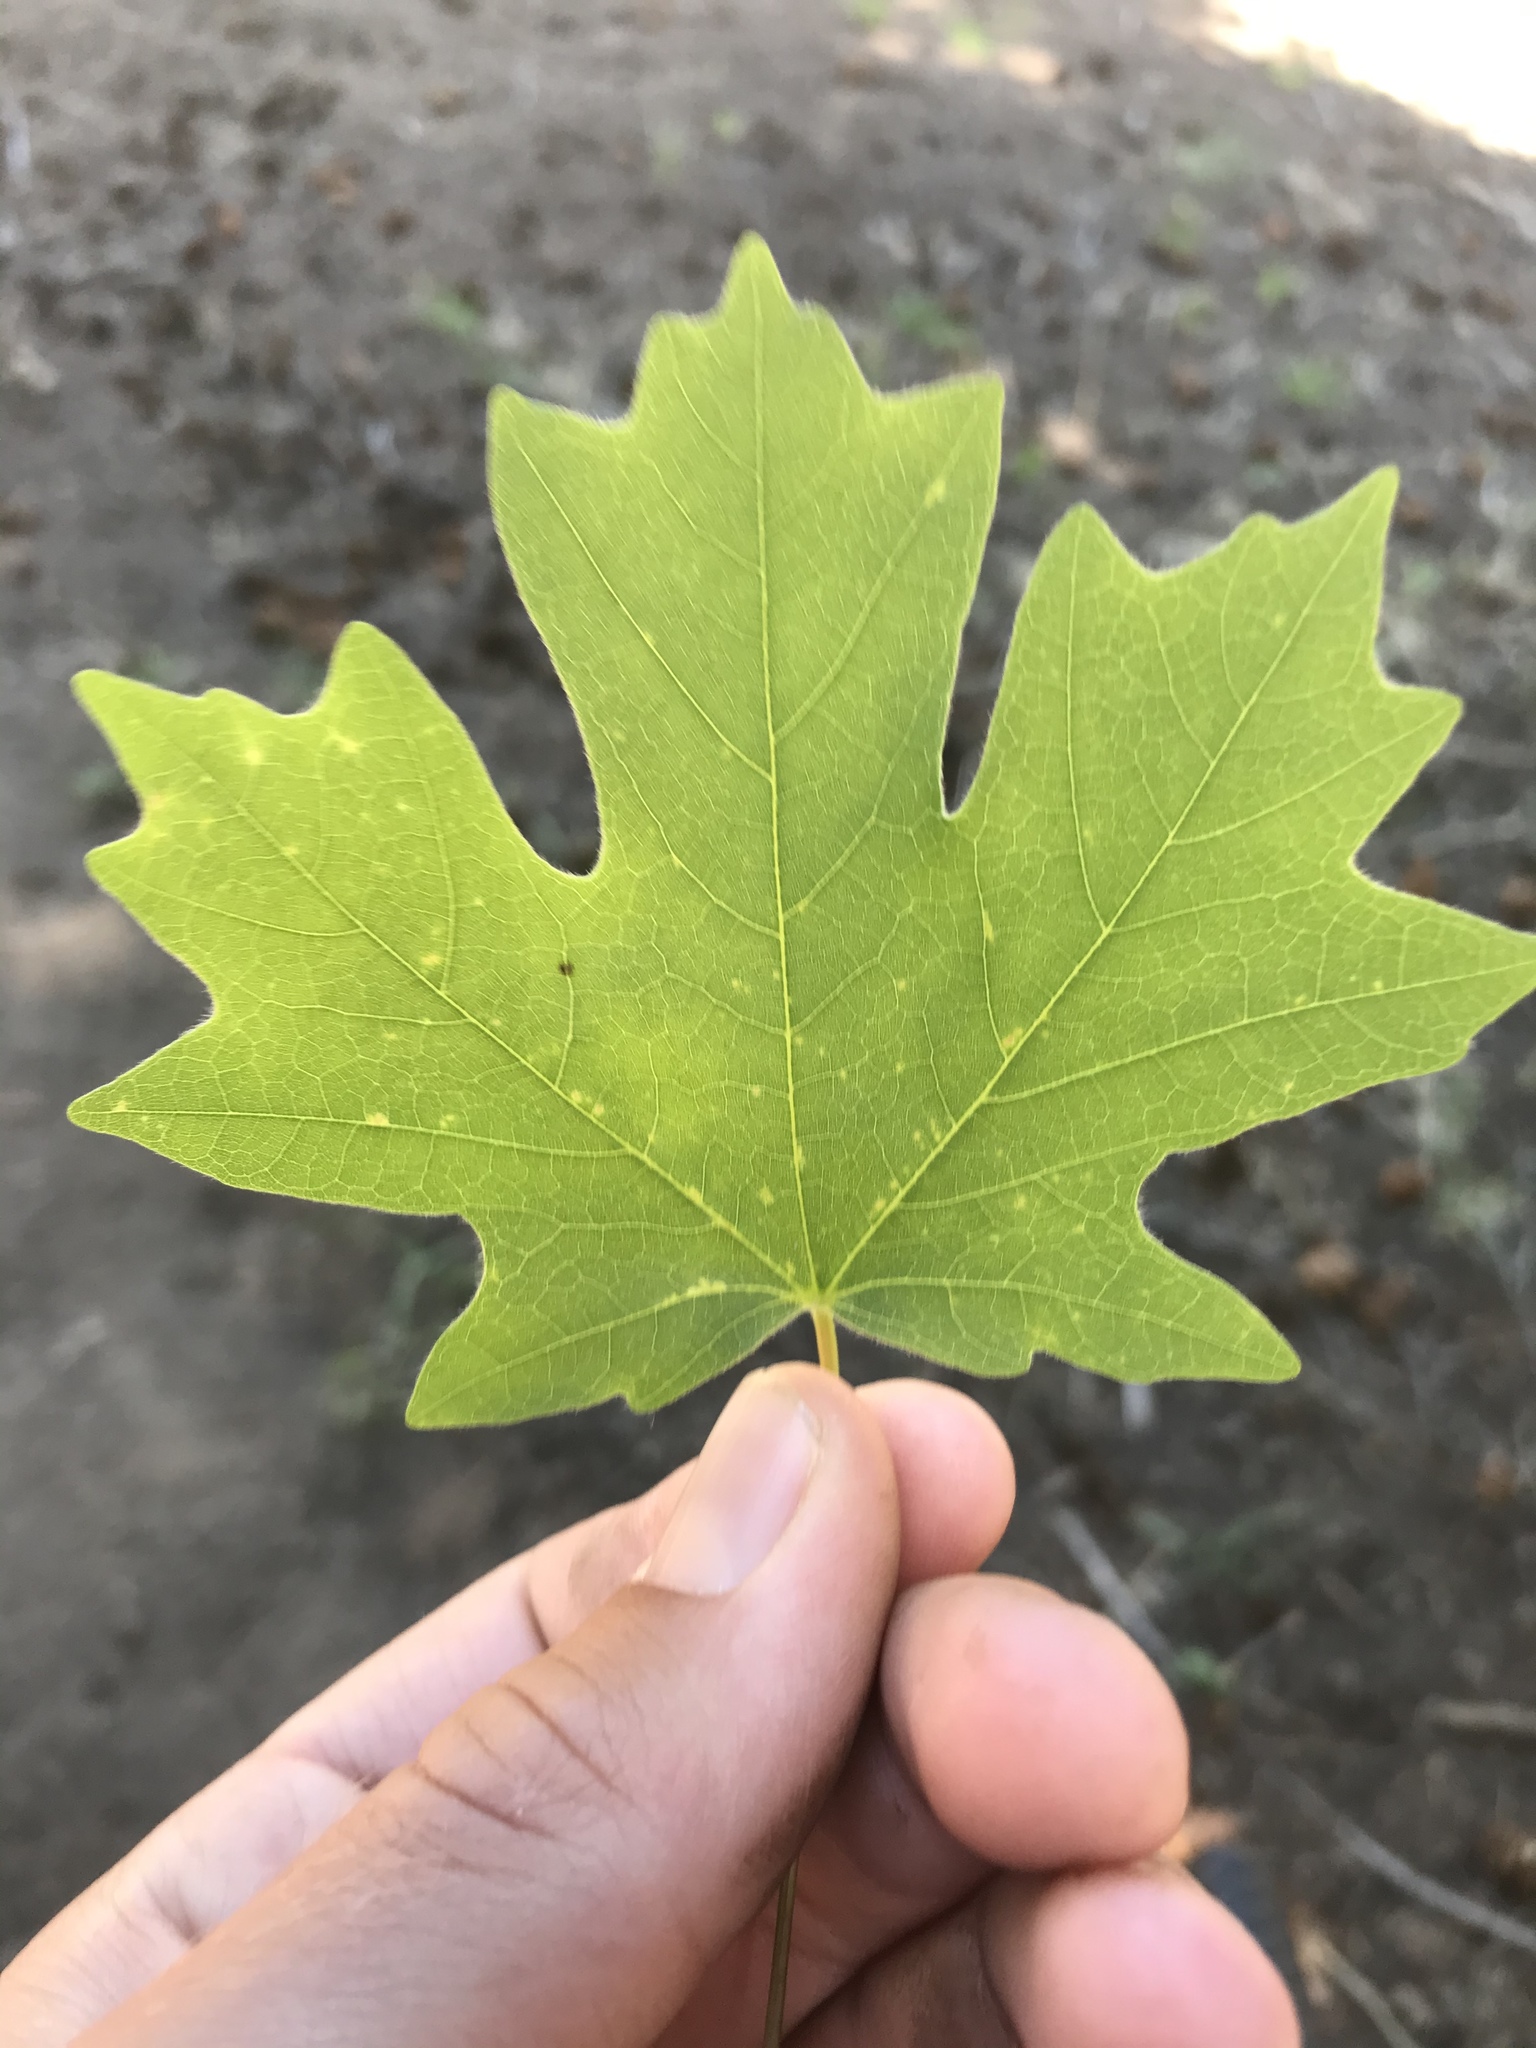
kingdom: Plantae
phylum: Tracheophyta
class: Magnoliopsida
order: Sapindales
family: Sapindaceae
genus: Acer
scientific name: Acer grandidentatum
